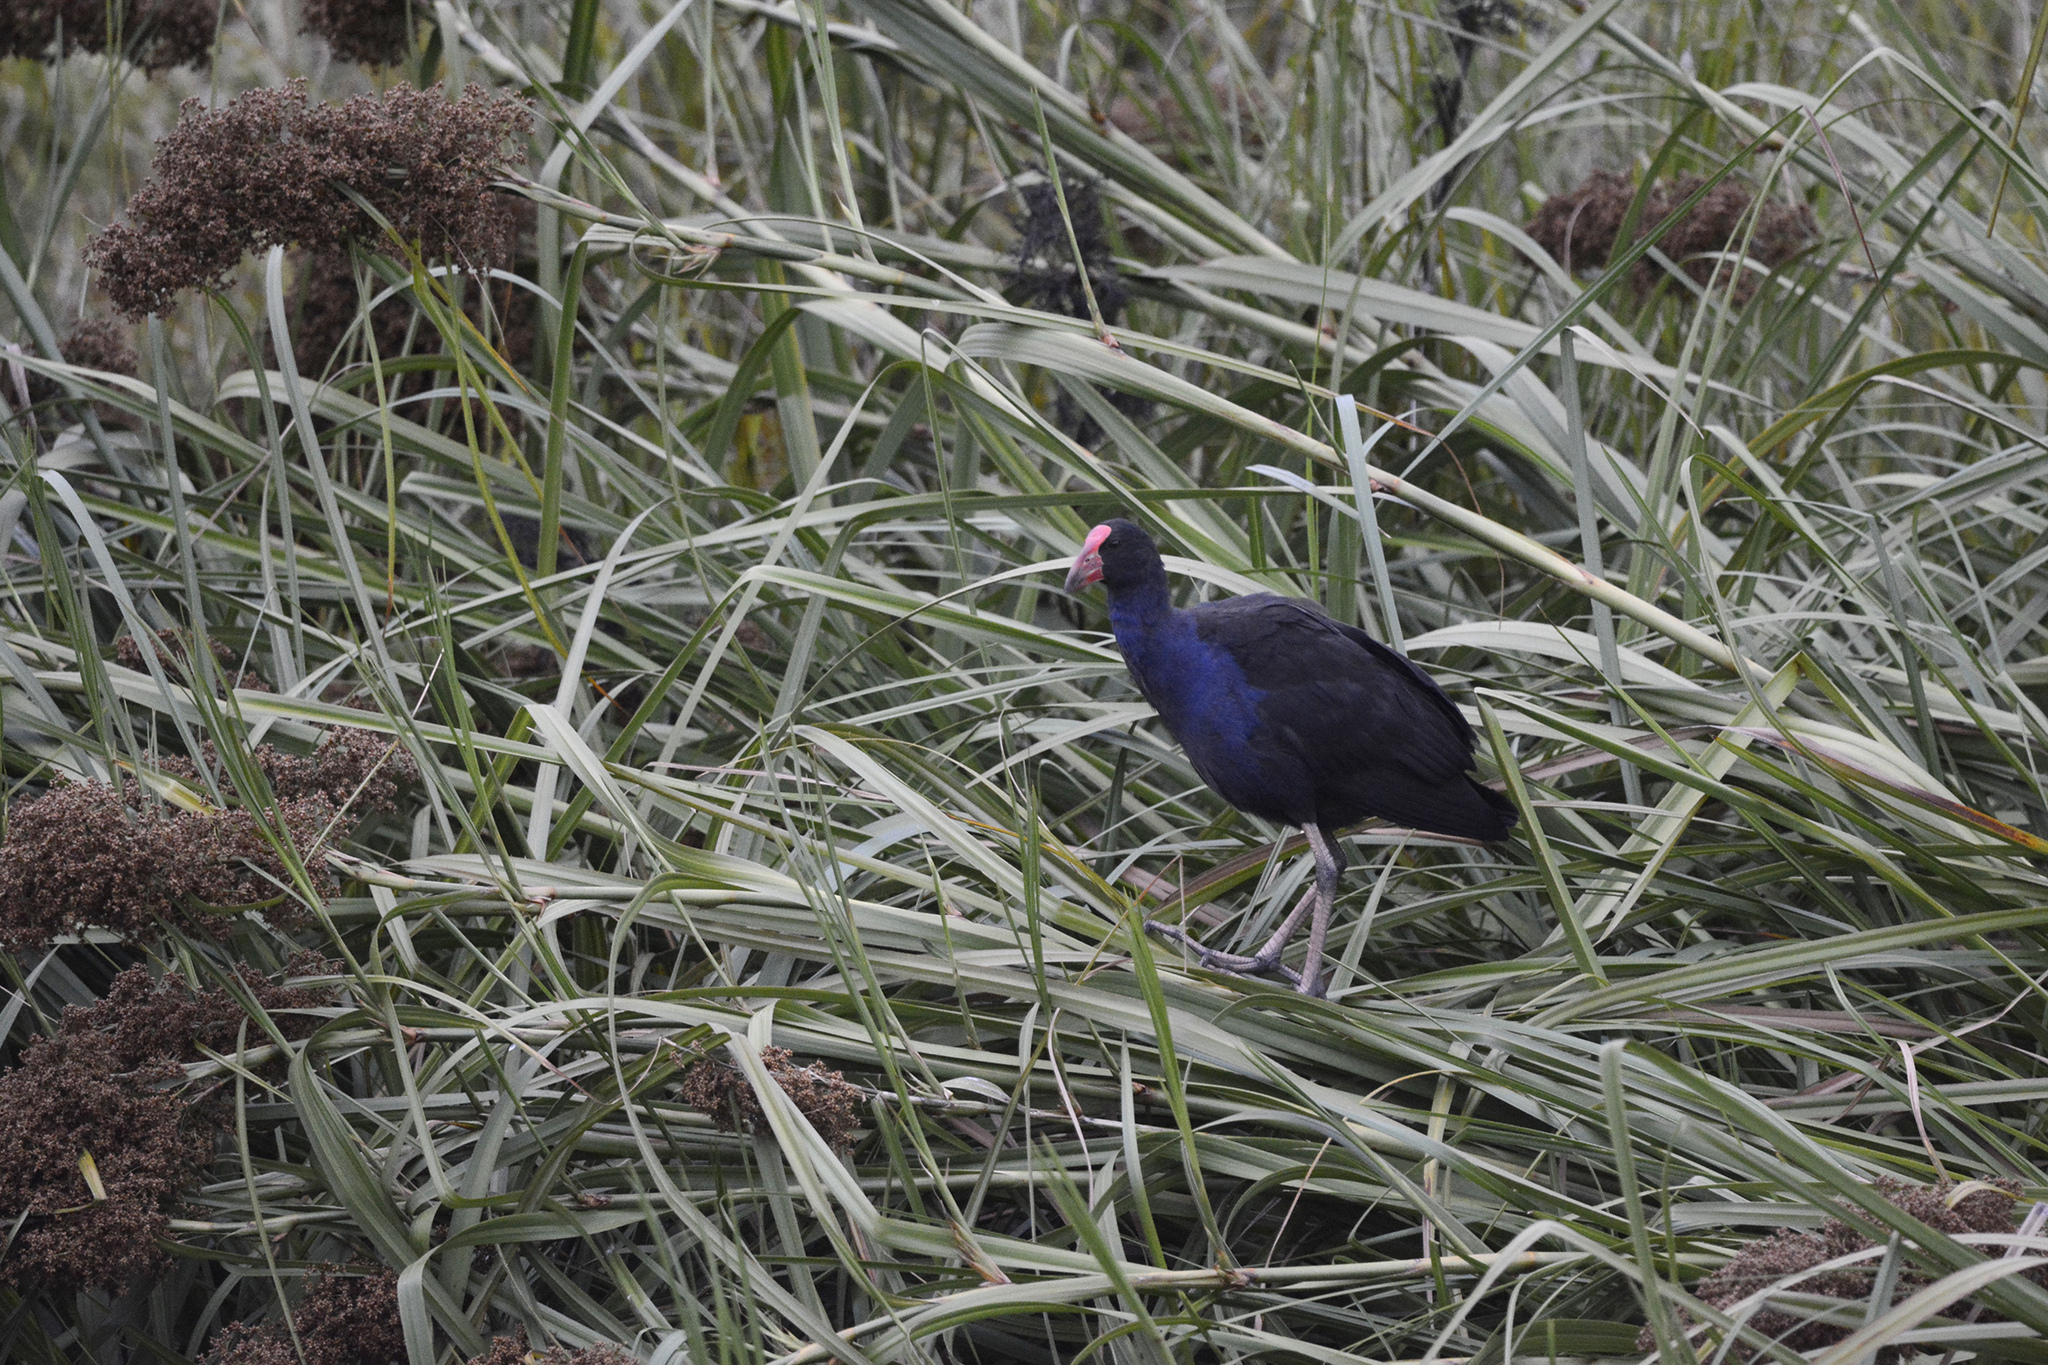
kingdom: Animalia
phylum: Chordata
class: Aves
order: Gruiformes
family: Rallidae
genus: Porphyrio
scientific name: Porphyrio melanotus
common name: Australasian swamphen
